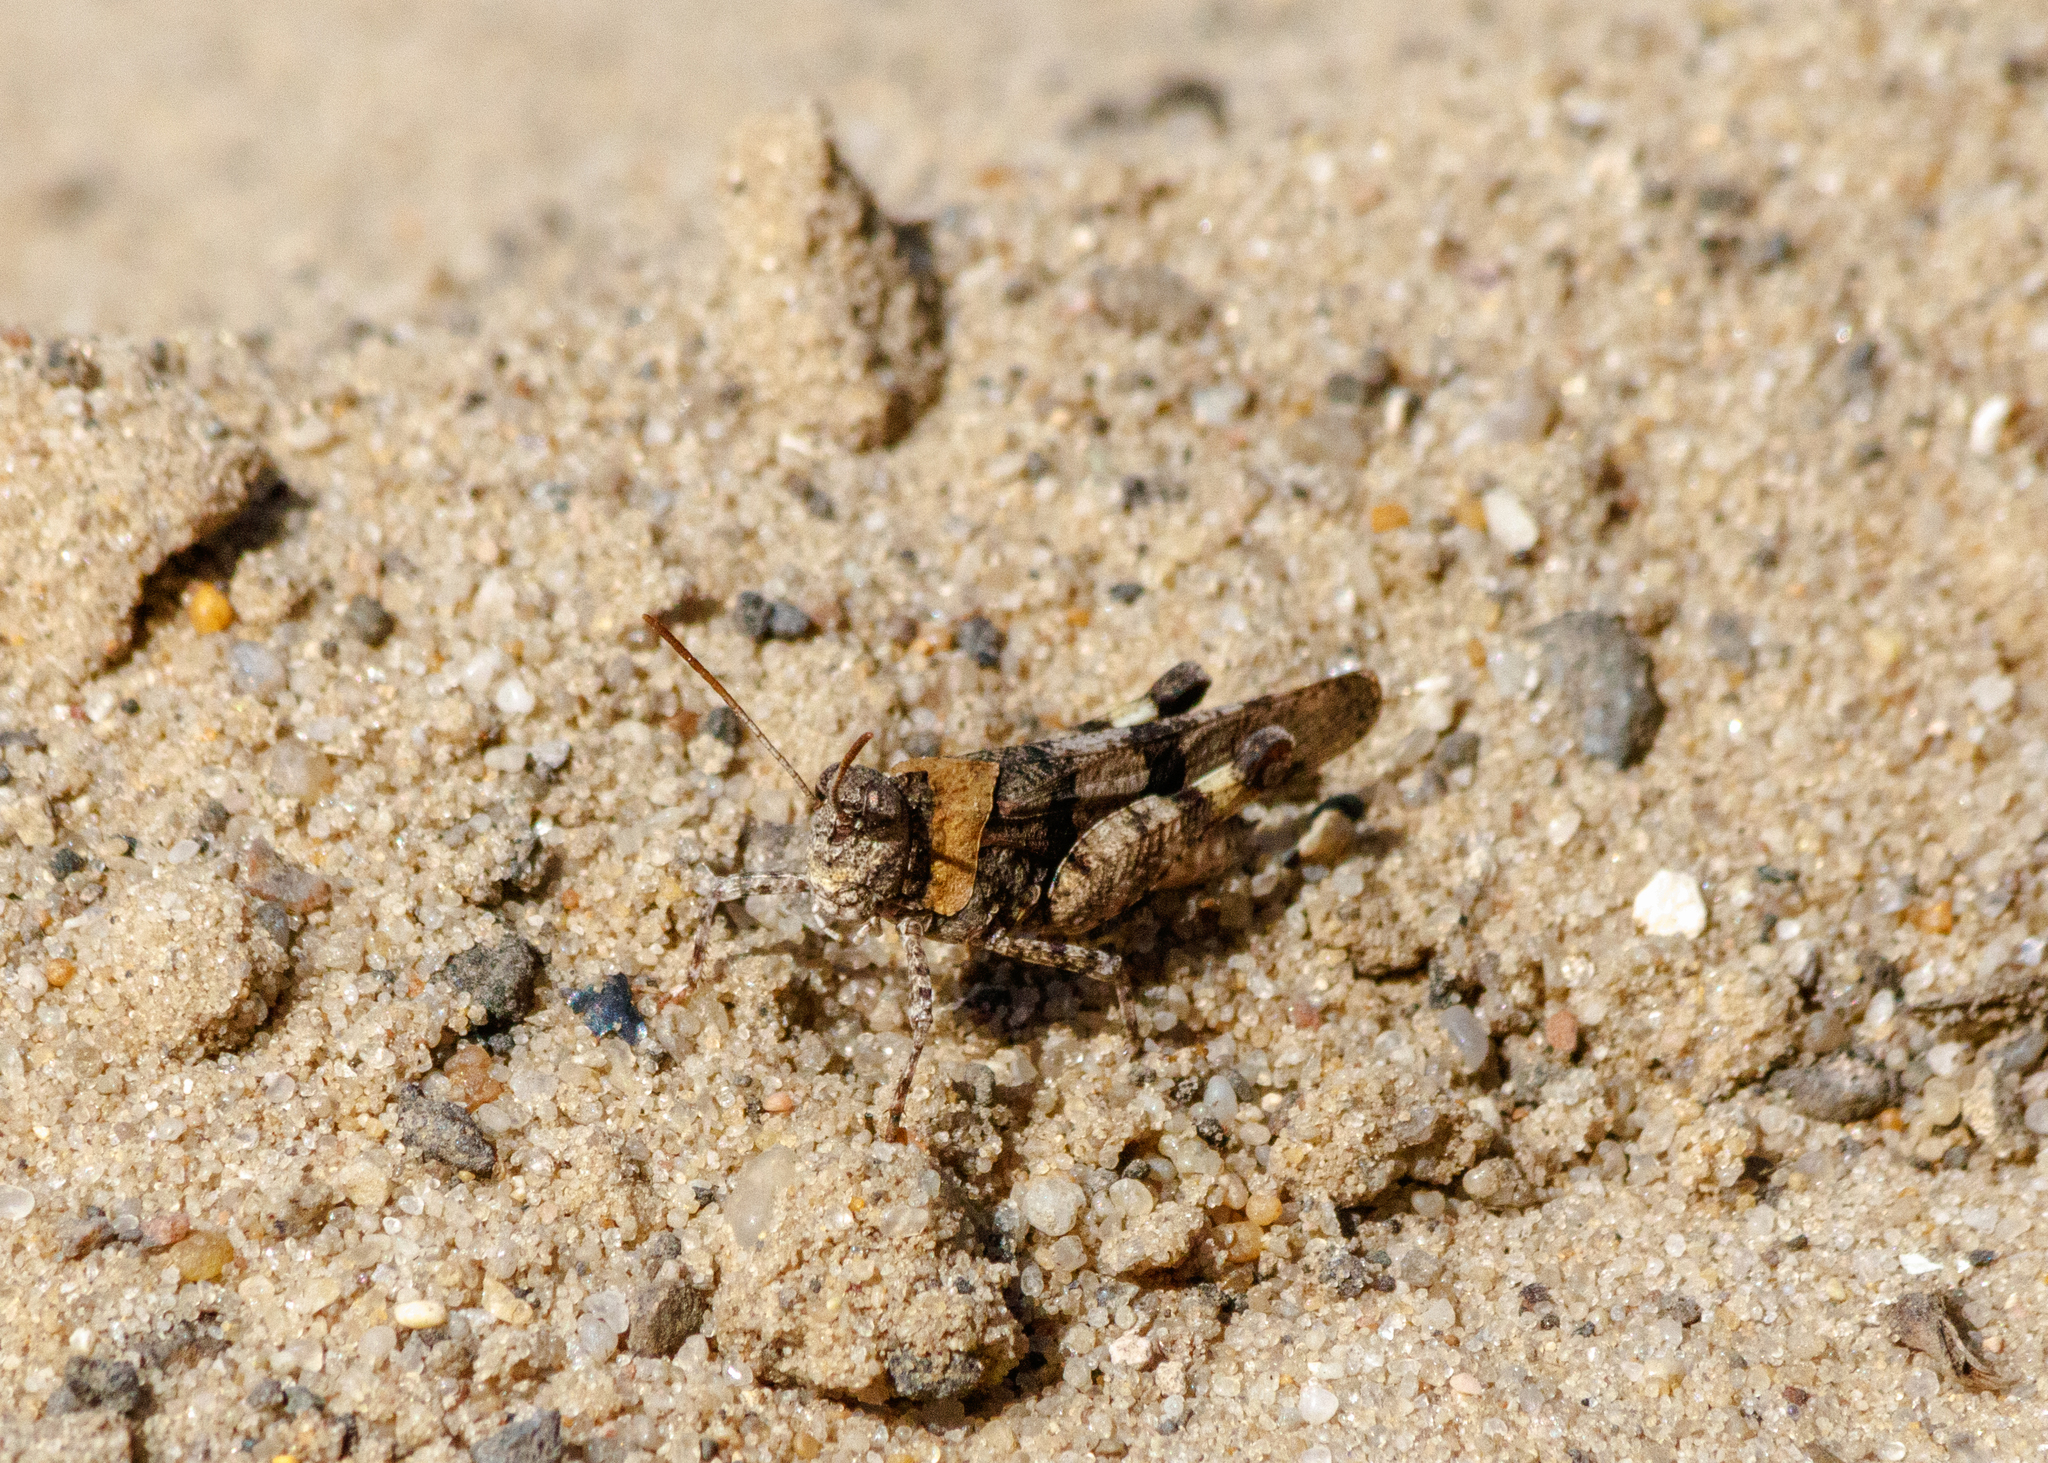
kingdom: Animalia
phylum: Arthropoda
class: Insecta
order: Orthoptera
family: Acrididae
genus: Oedipoda
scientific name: Oedipoda caerulescens
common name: Blue-winged grasshopper
